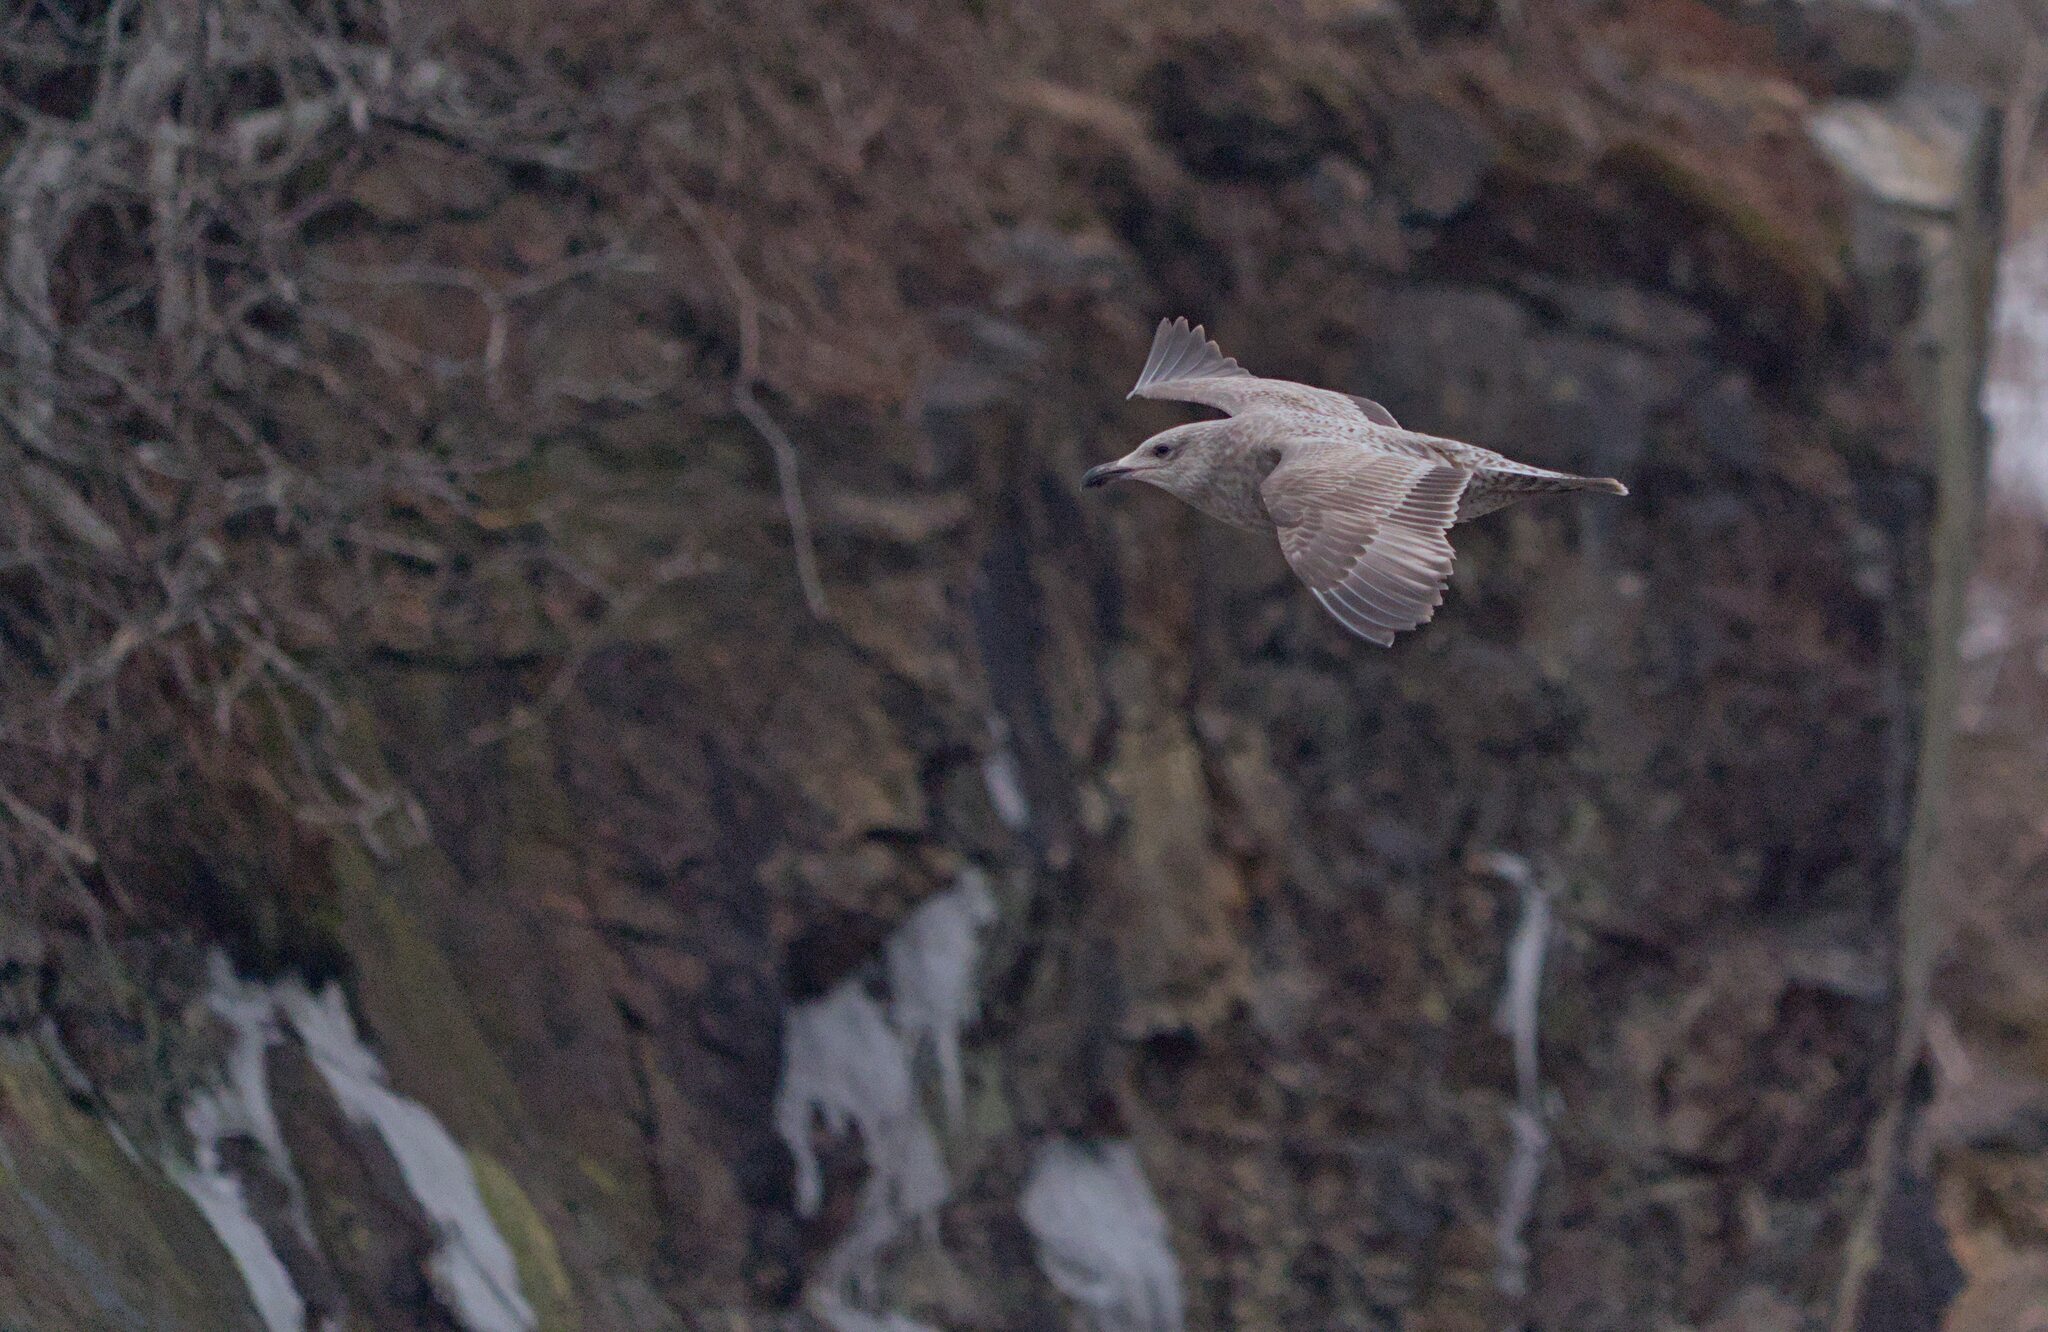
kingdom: Animalia
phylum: Chordata
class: Aves
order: Charadriiformes
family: Laridae
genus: Larus
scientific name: Larus argentatus
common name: Herring gull
